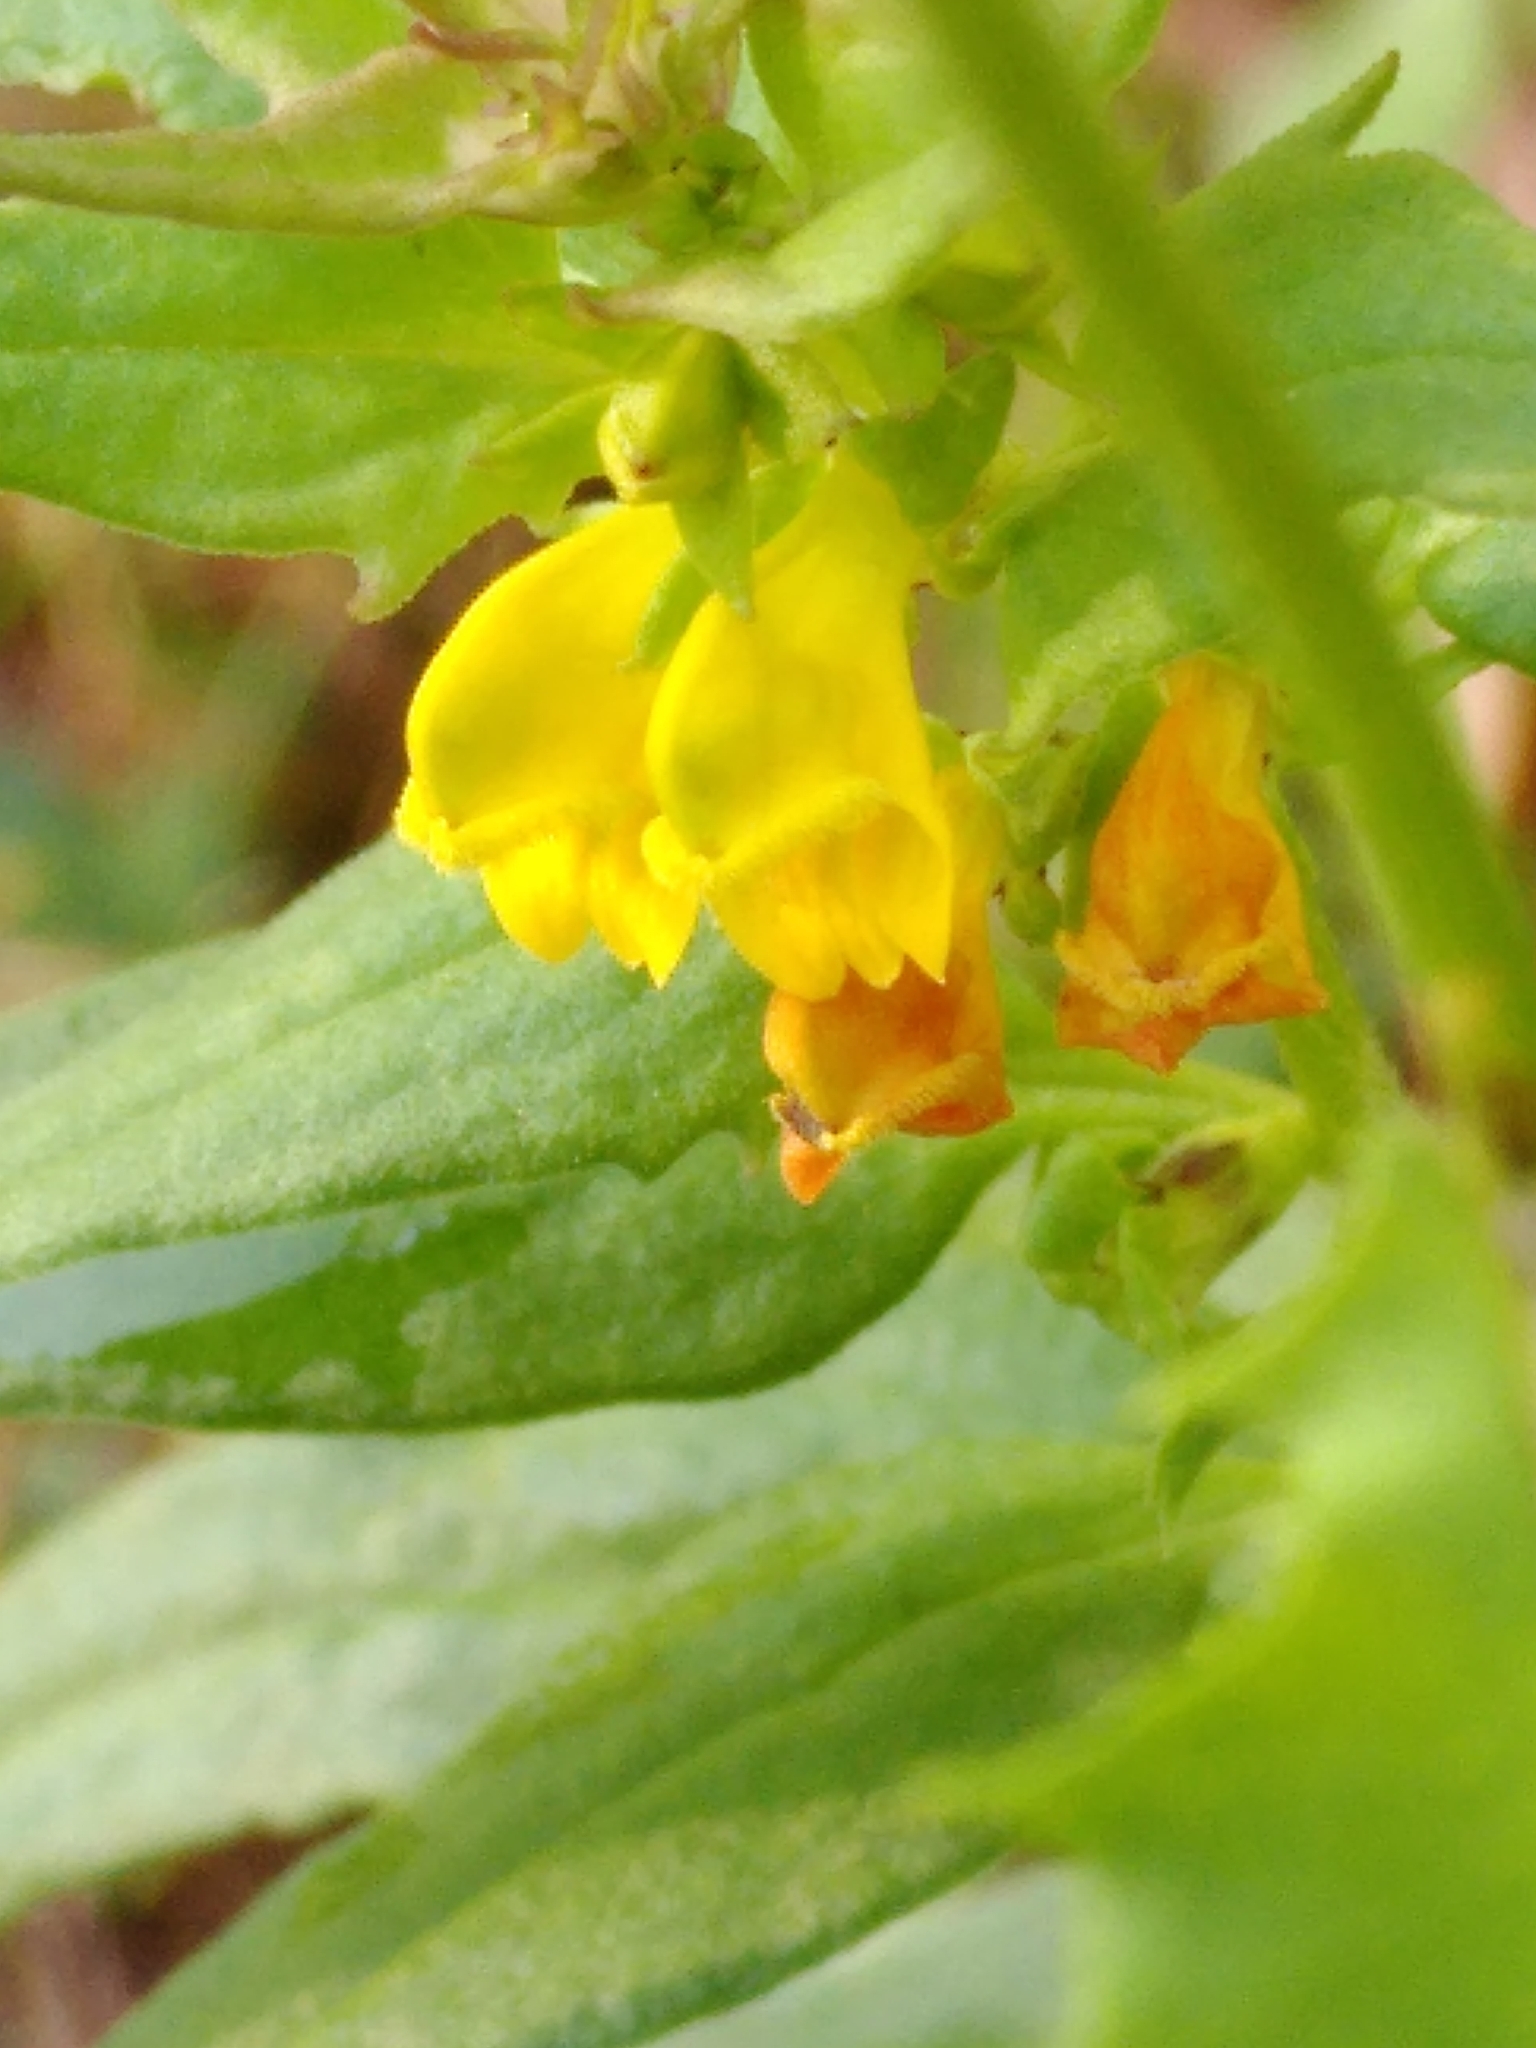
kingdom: Plantae
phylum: Tracheophyta
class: Magnoliopsida
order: Lamiales
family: Orobanchaceae
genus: Melampyrum
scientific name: Melampyrum sylvaticum
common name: Small cow-wheat
